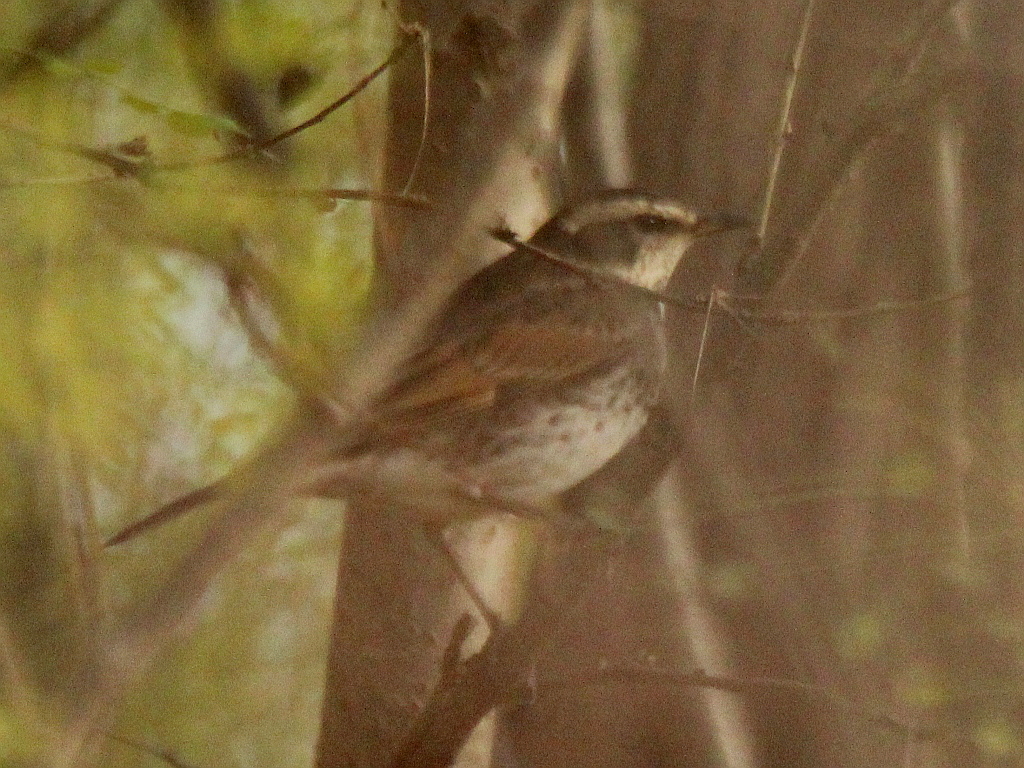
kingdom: Animalia
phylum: Chordata
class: Aves
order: Passeriformes
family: Turdidae
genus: Turdus
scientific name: Turdus eunomus
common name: Dusky thrush
